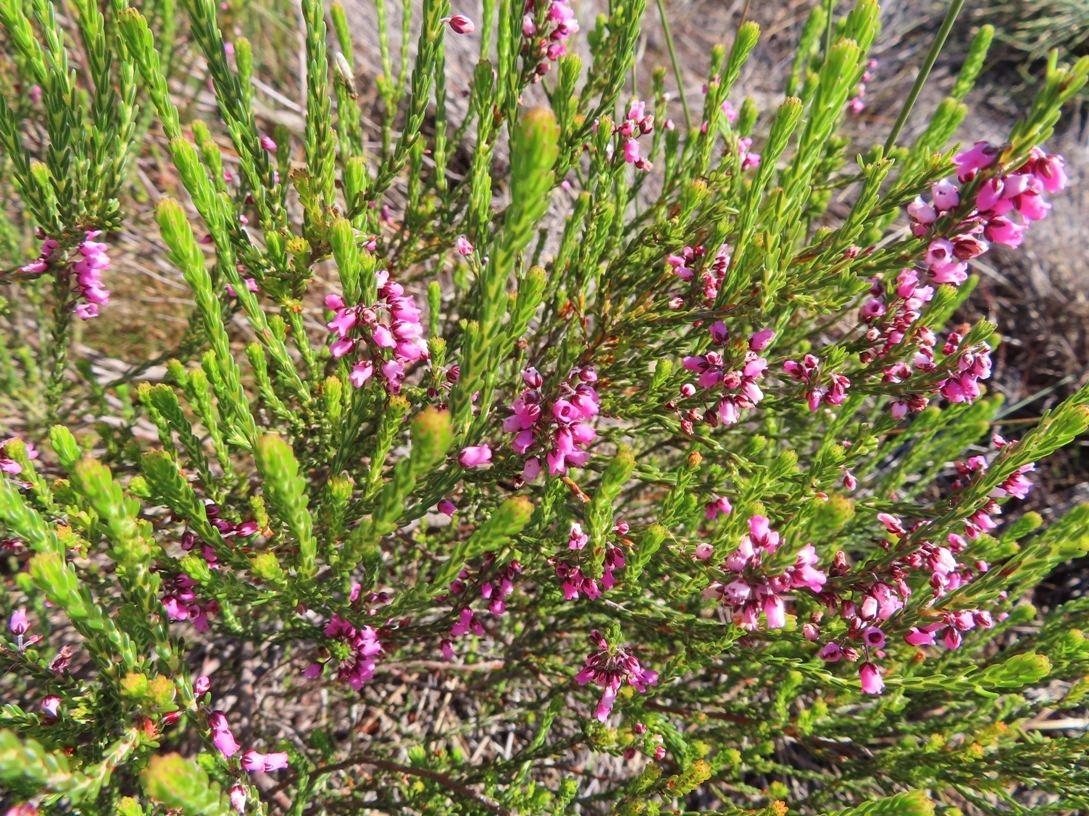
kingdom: Plantae
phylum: Tracheophyta
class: Magnoliopsida
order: Ericales
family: Ericaceae
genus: Erica
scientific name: Erica pulchella
